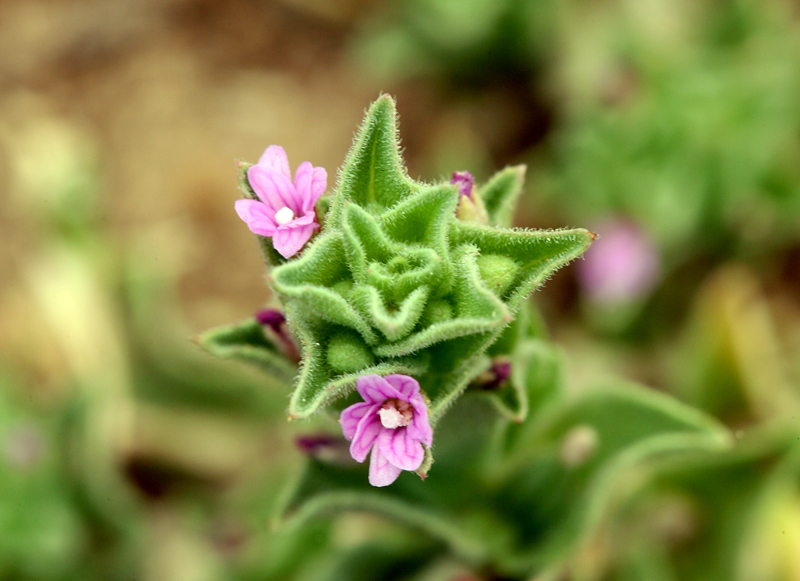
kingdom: Plantae
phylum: Tracheophyta
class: Magnoliopsida
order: Myrtales
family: Onagraceae
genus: Epilobium
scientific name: Epilobium campestre
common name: Smooth spike-primrose
